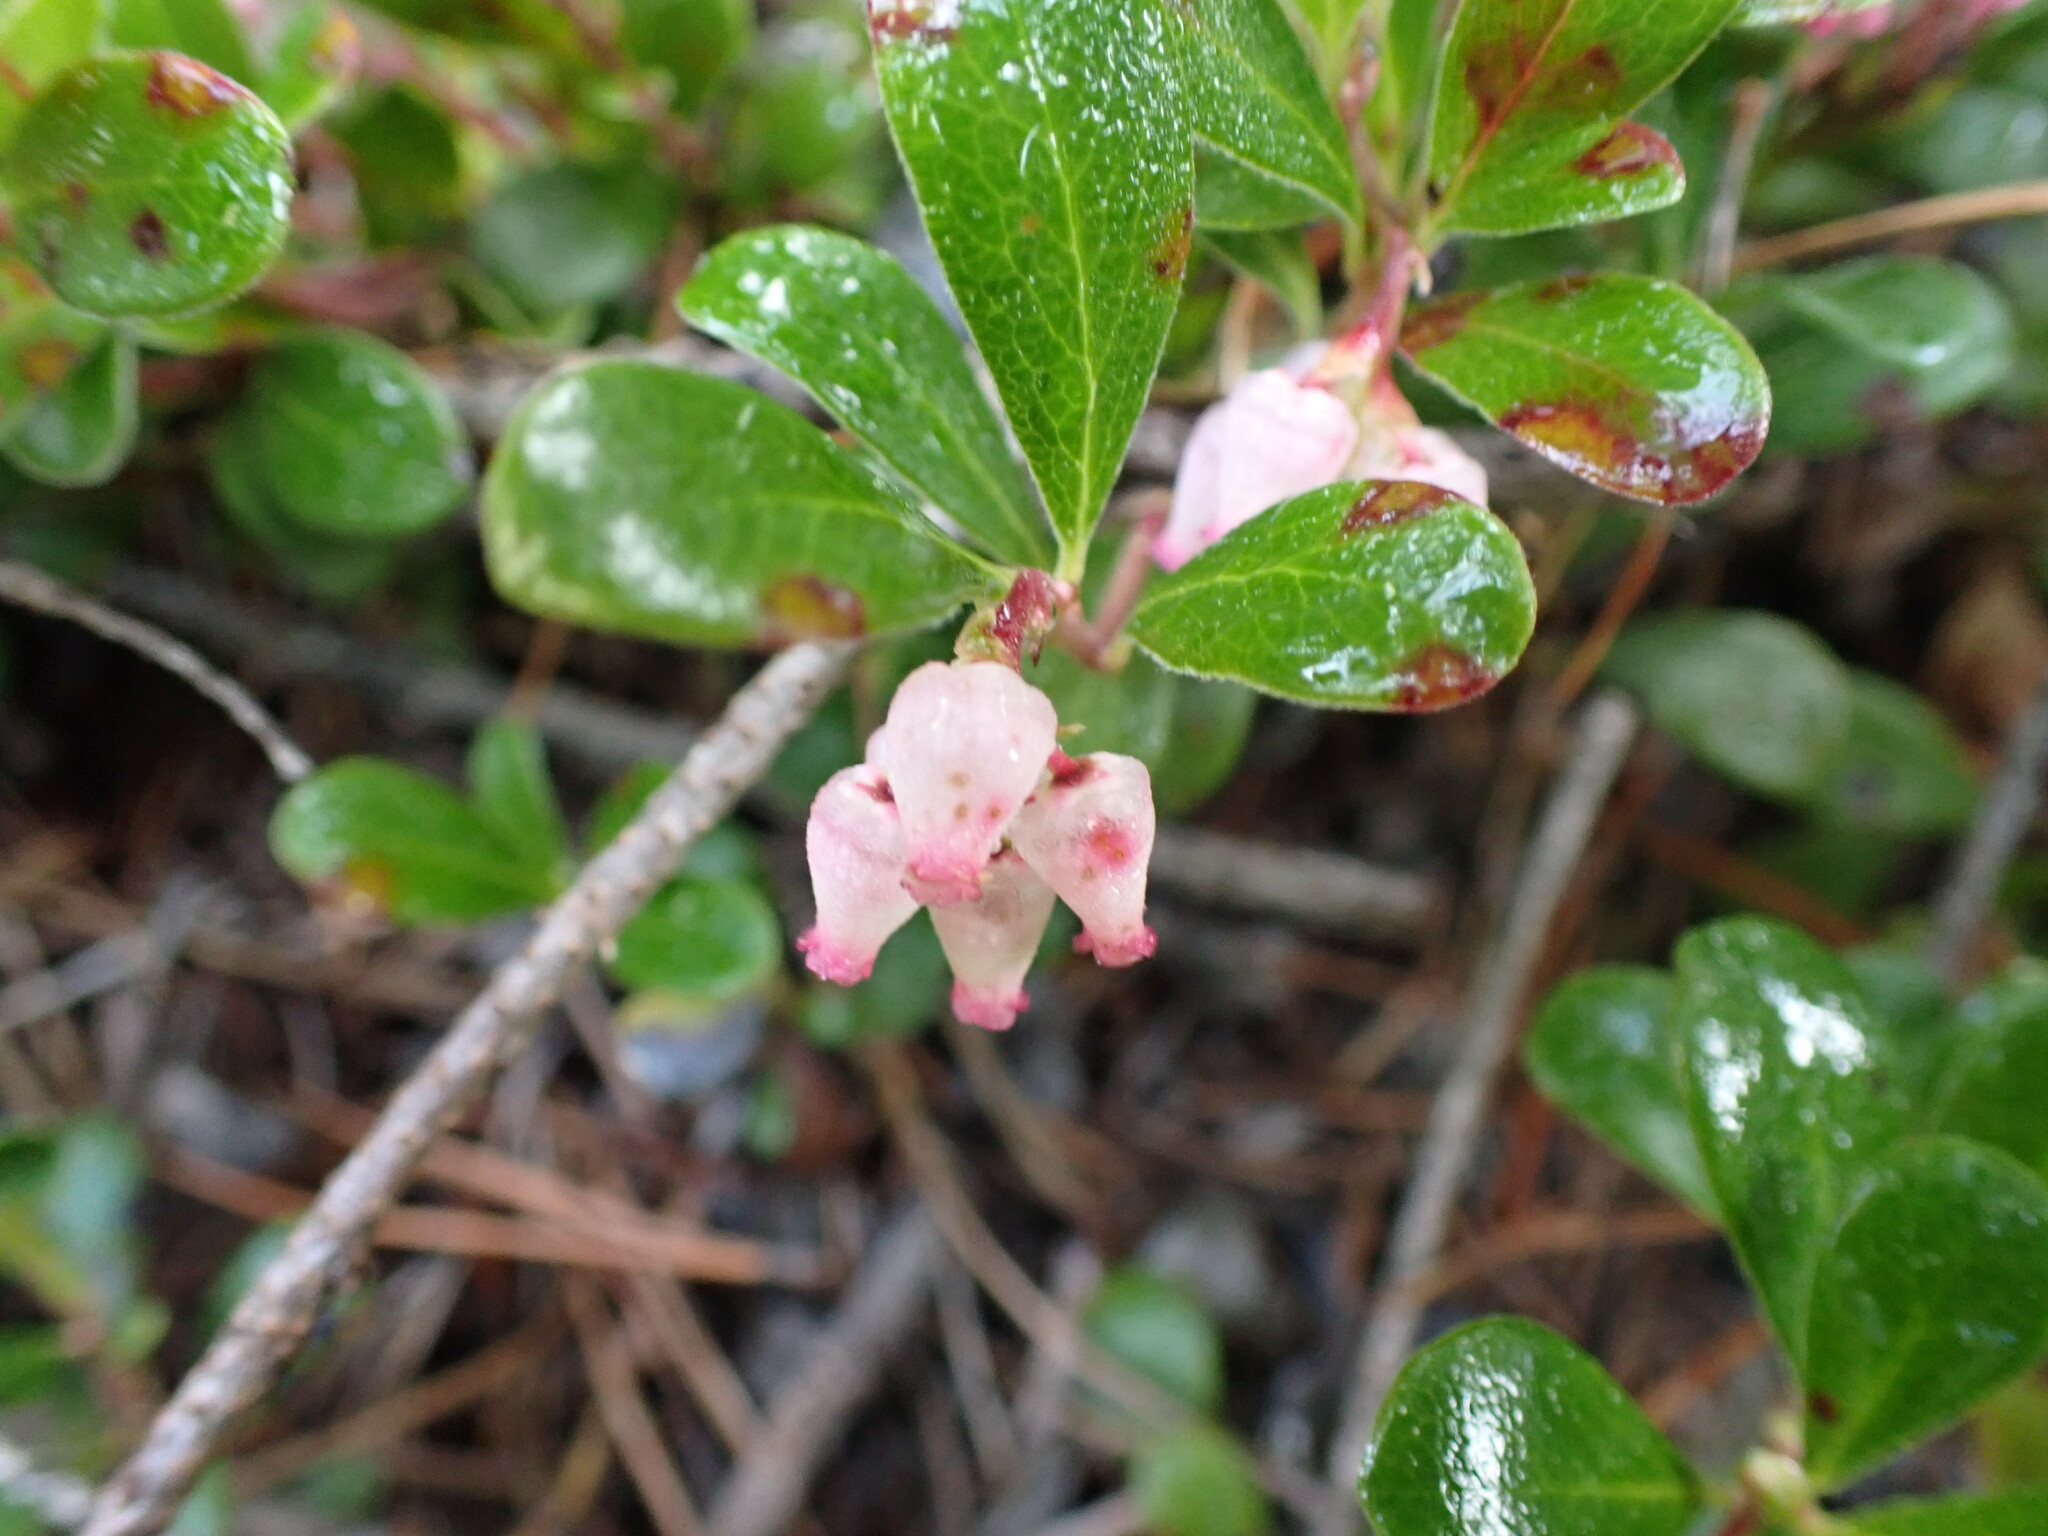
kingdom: Plantae
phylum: Tracheophyta
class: Magnoliopsida
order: Ericales
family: Ericaceae
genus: Arctostaphylos
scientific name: Arctostaphylos uva-ursi
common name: Bearberry
